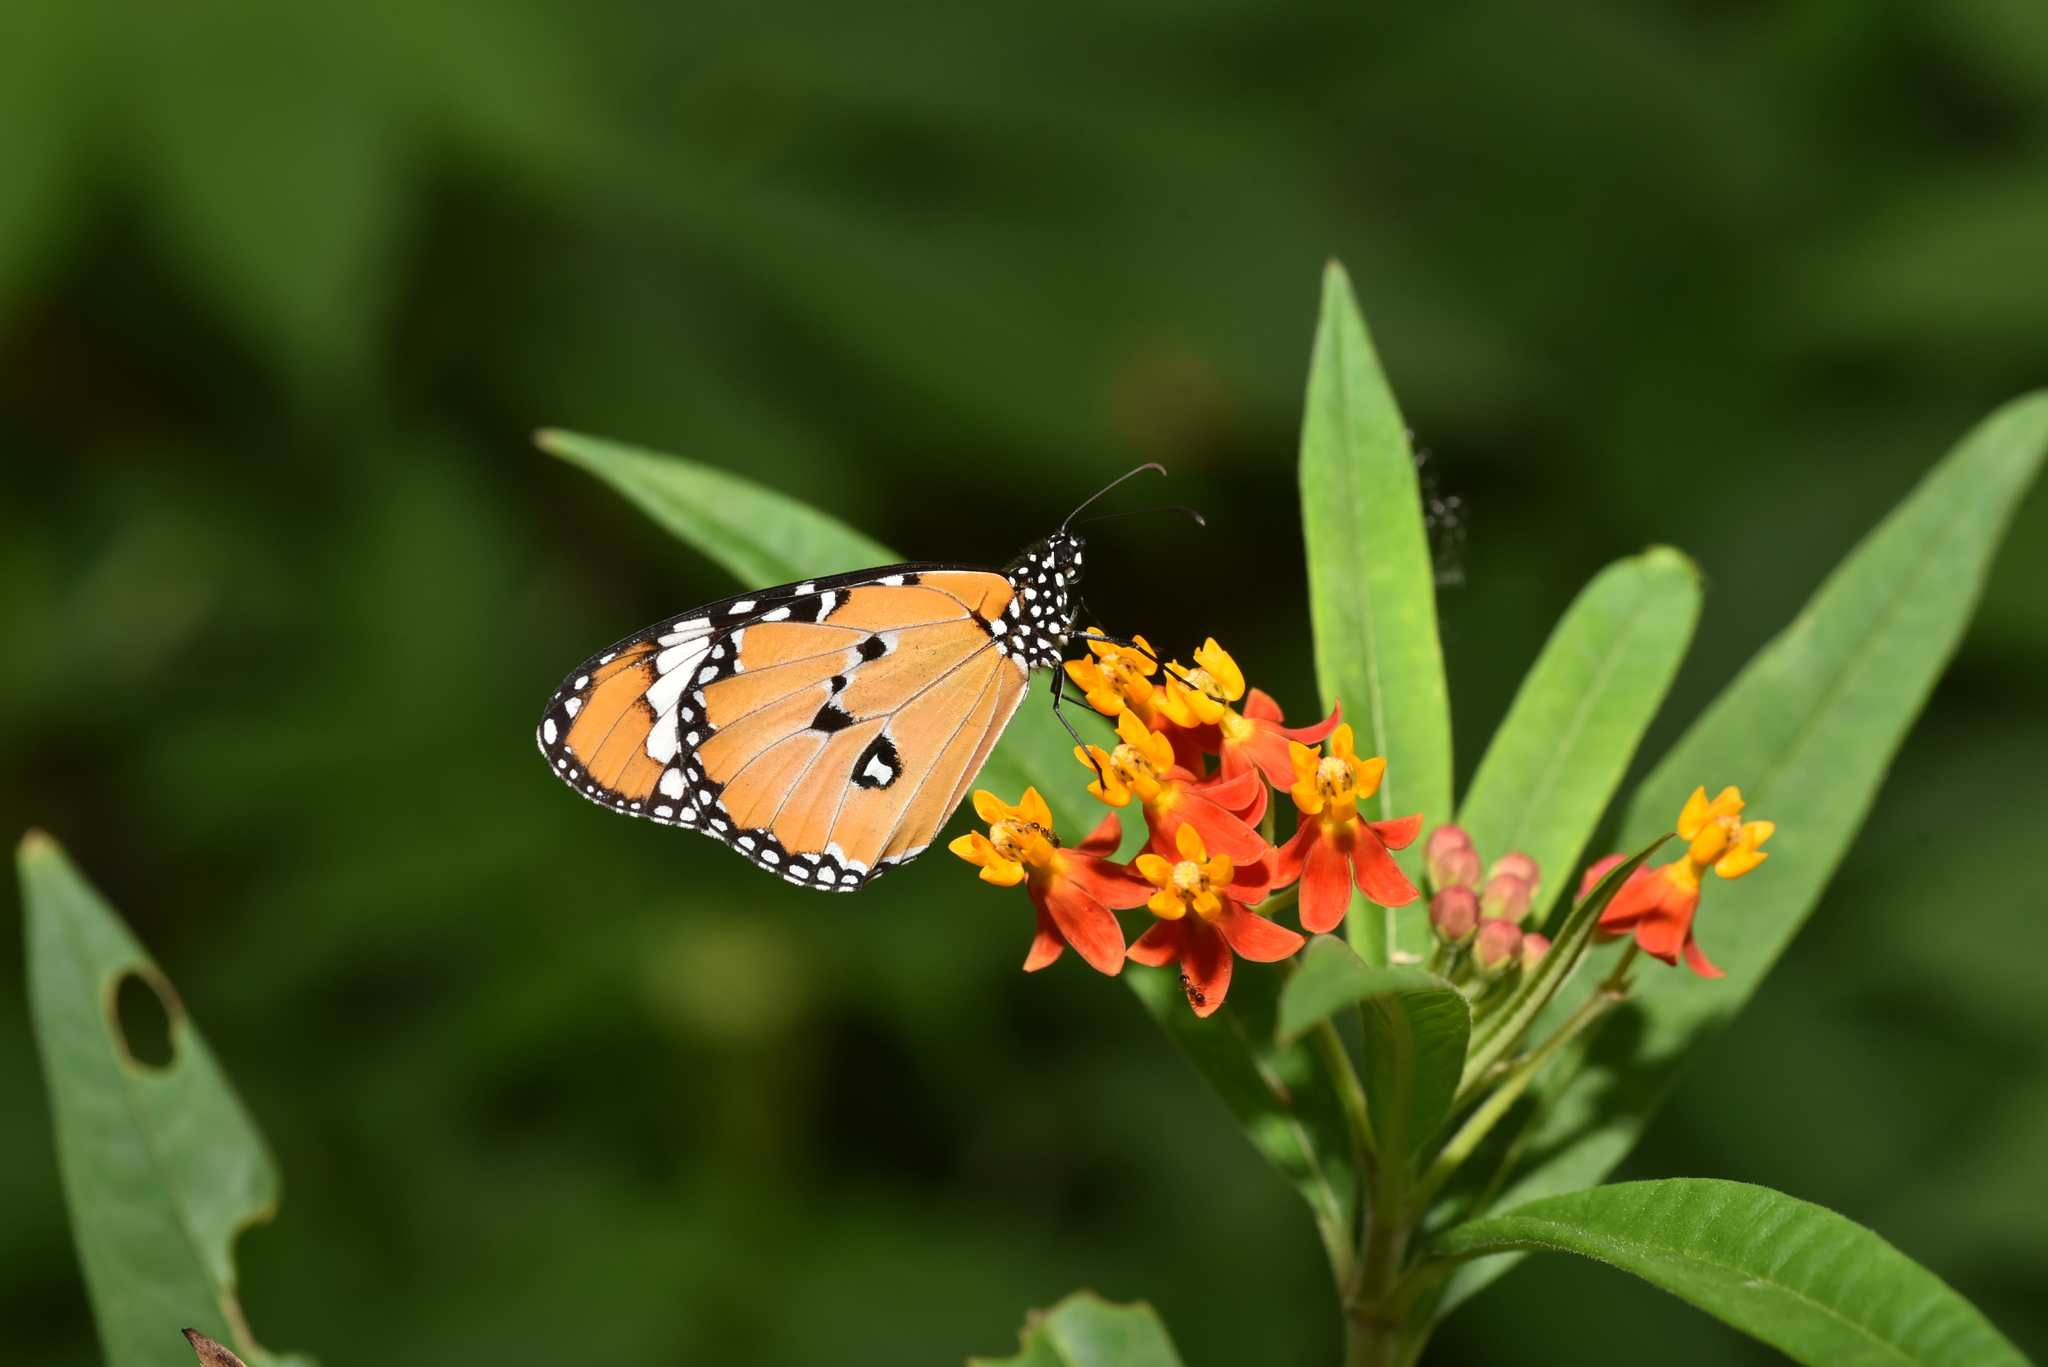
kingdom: Animalia
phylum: Arthropoda
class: Insecta
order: Lepidoptera
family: Nymphalidae
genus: Danaus
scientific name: Danaus chrysippus
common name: Plain tiger
